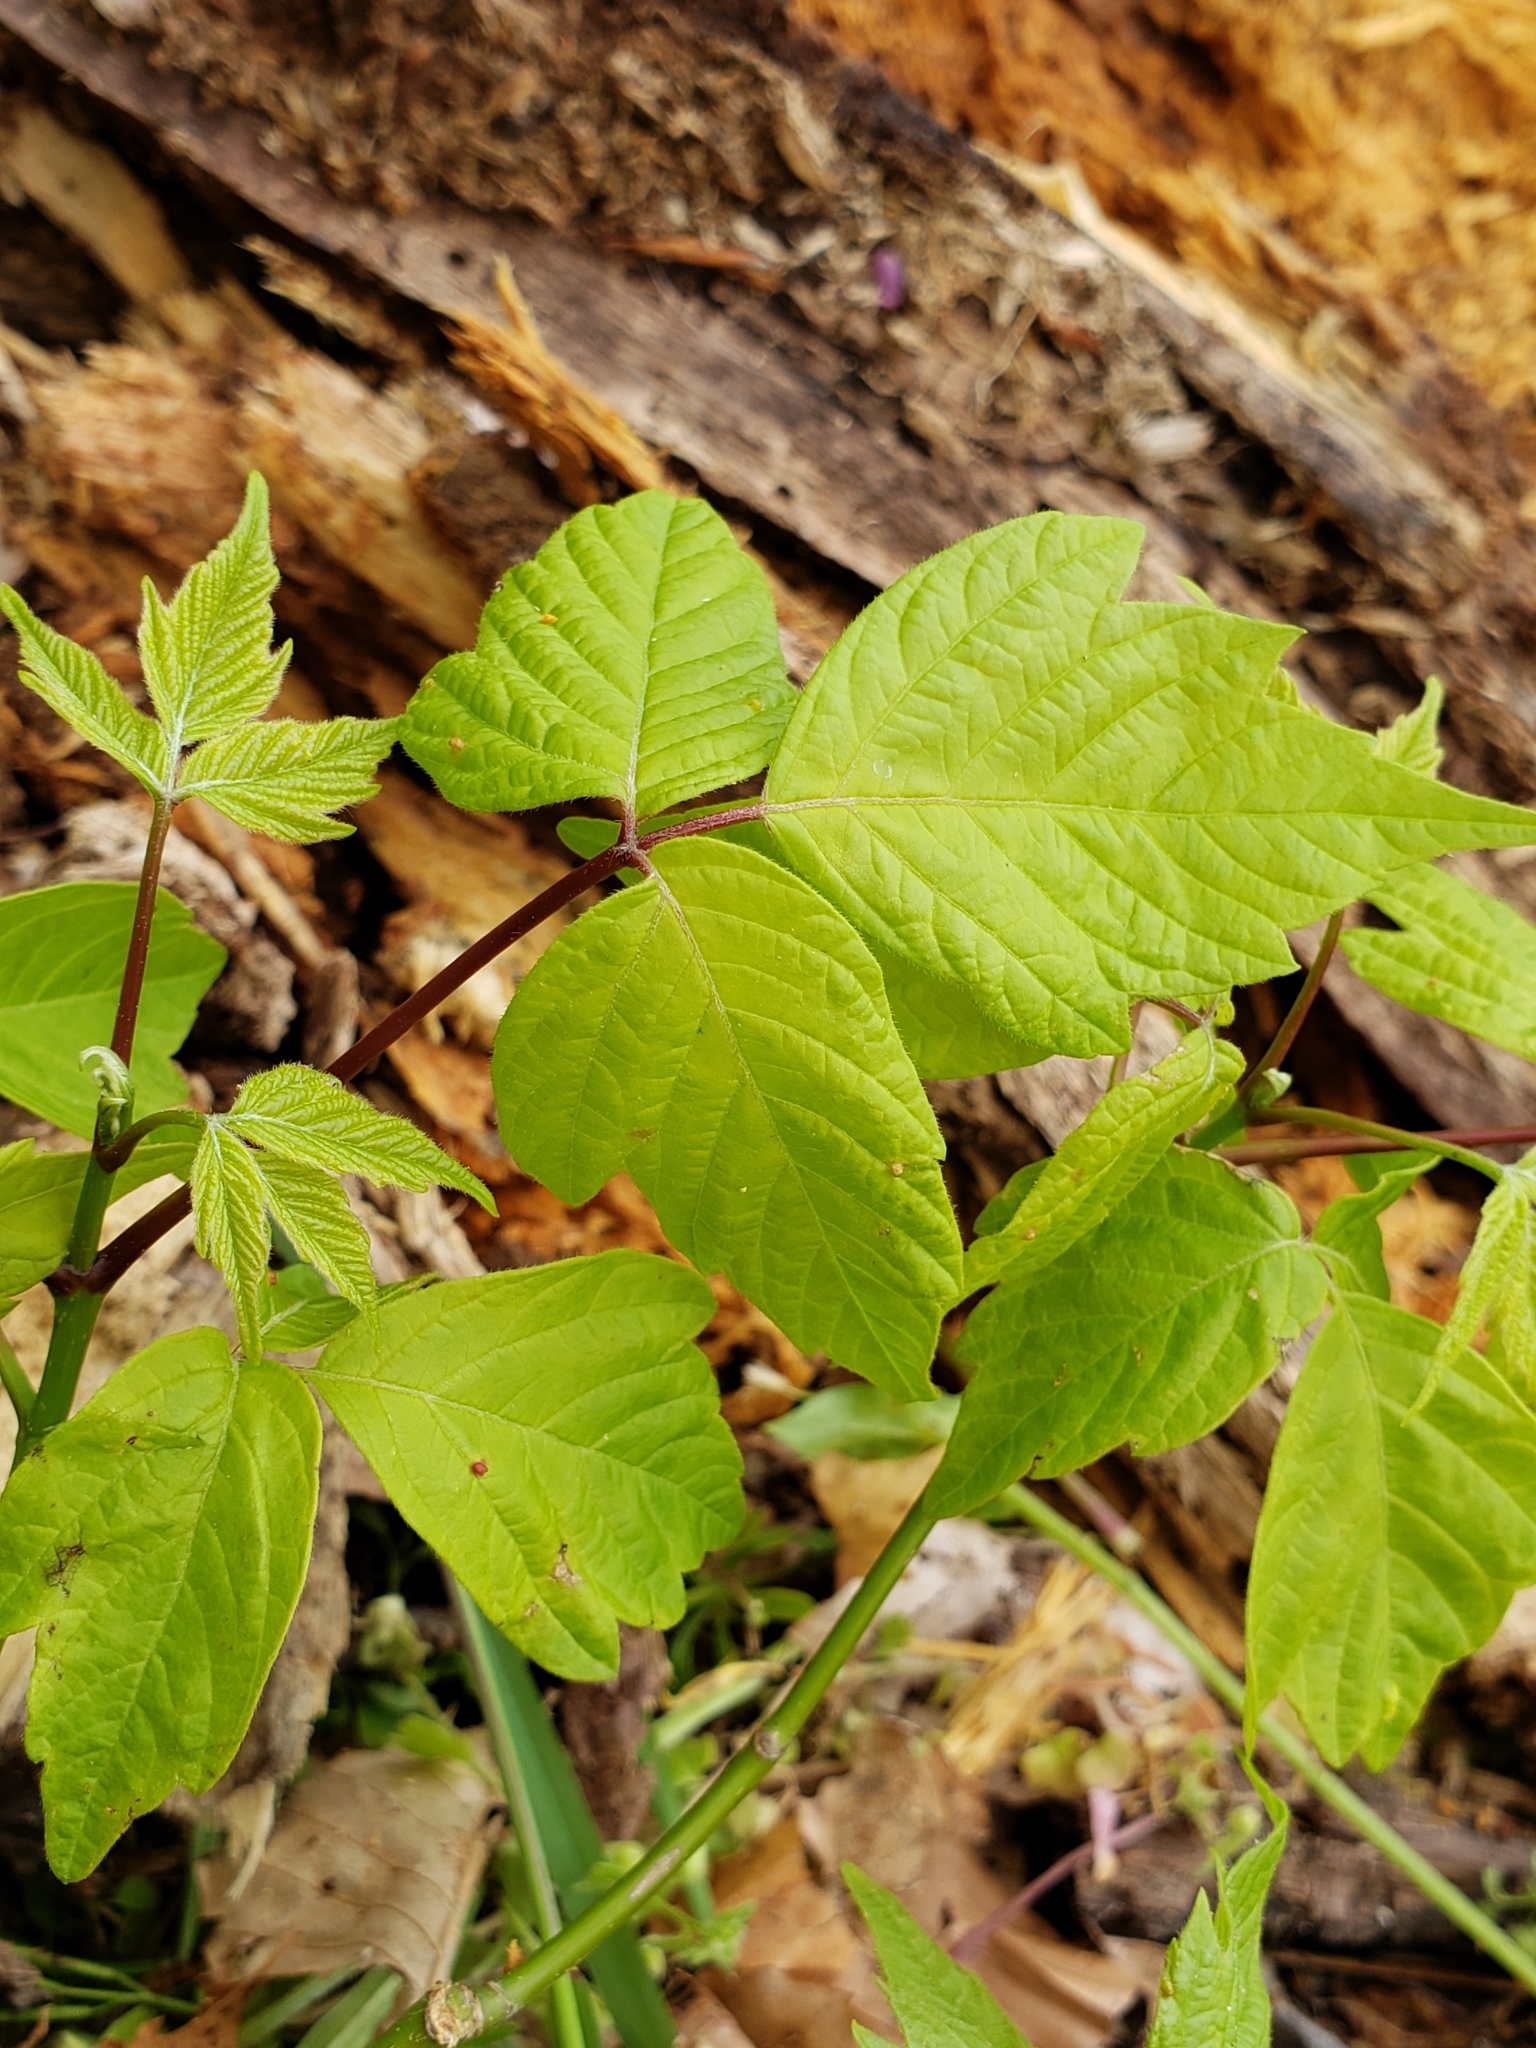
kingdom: Animalia
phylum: Arthropoda
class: Arachnida
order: Trombidiformes
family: Eriophyidae
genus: Aceria
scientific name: Aceria
